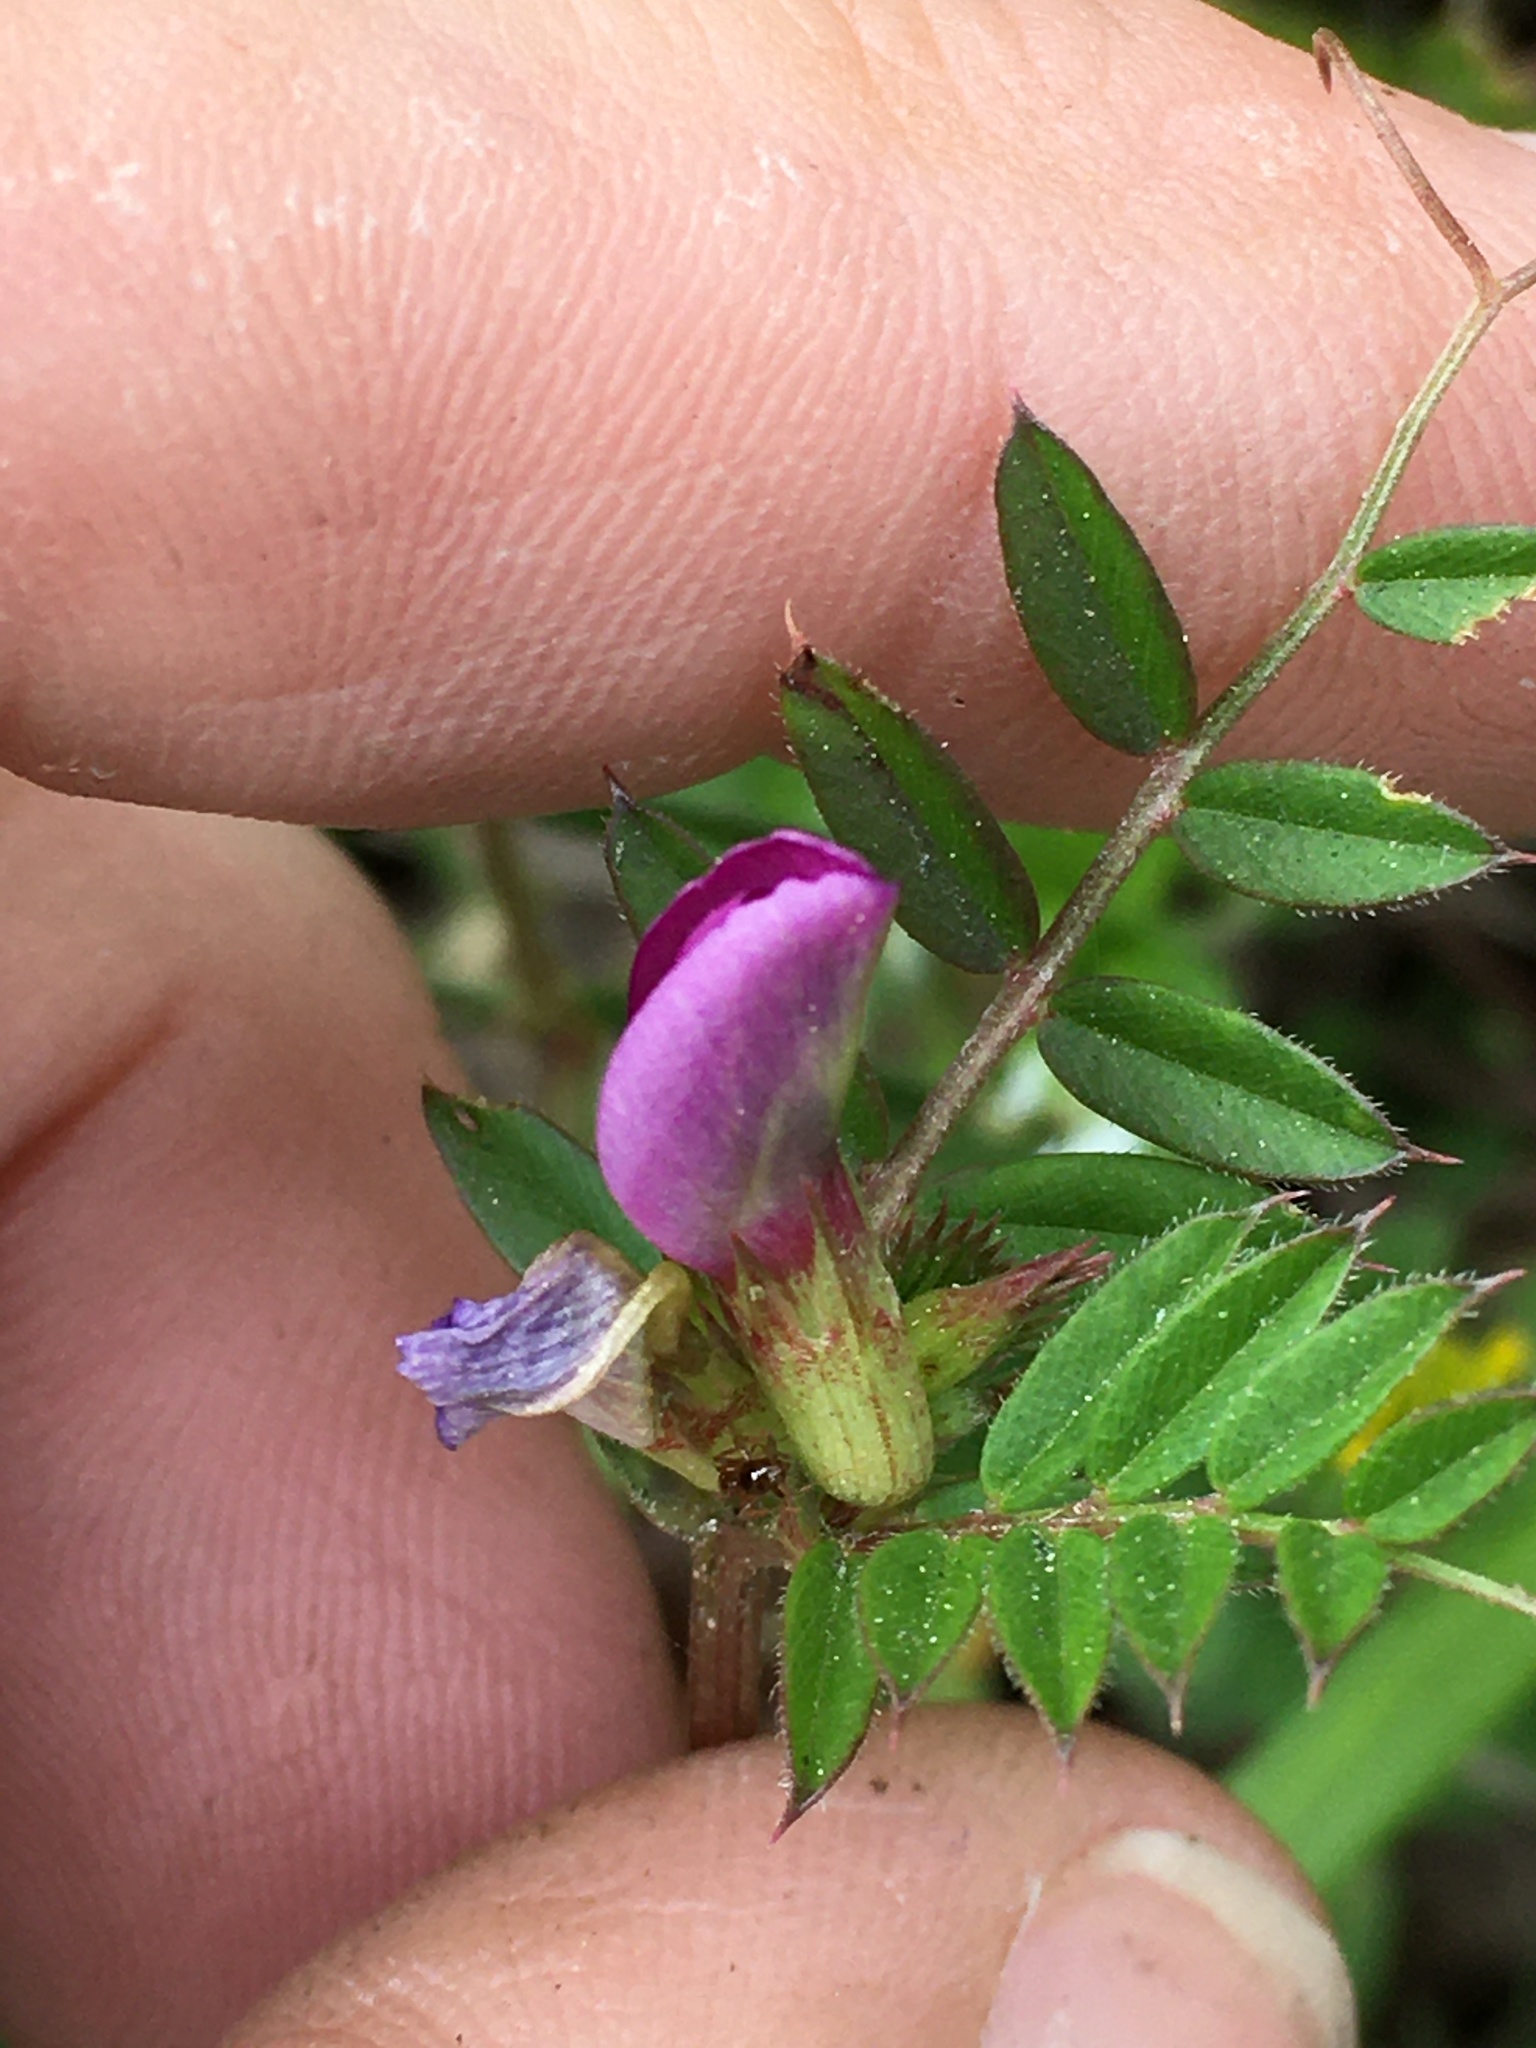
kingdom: Plantae
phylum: Tracheophyta
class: Magnoliopsida
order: Fabales
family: Fabaceae
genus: Vicia
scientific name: Vicia sativa
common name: Garden vetch
